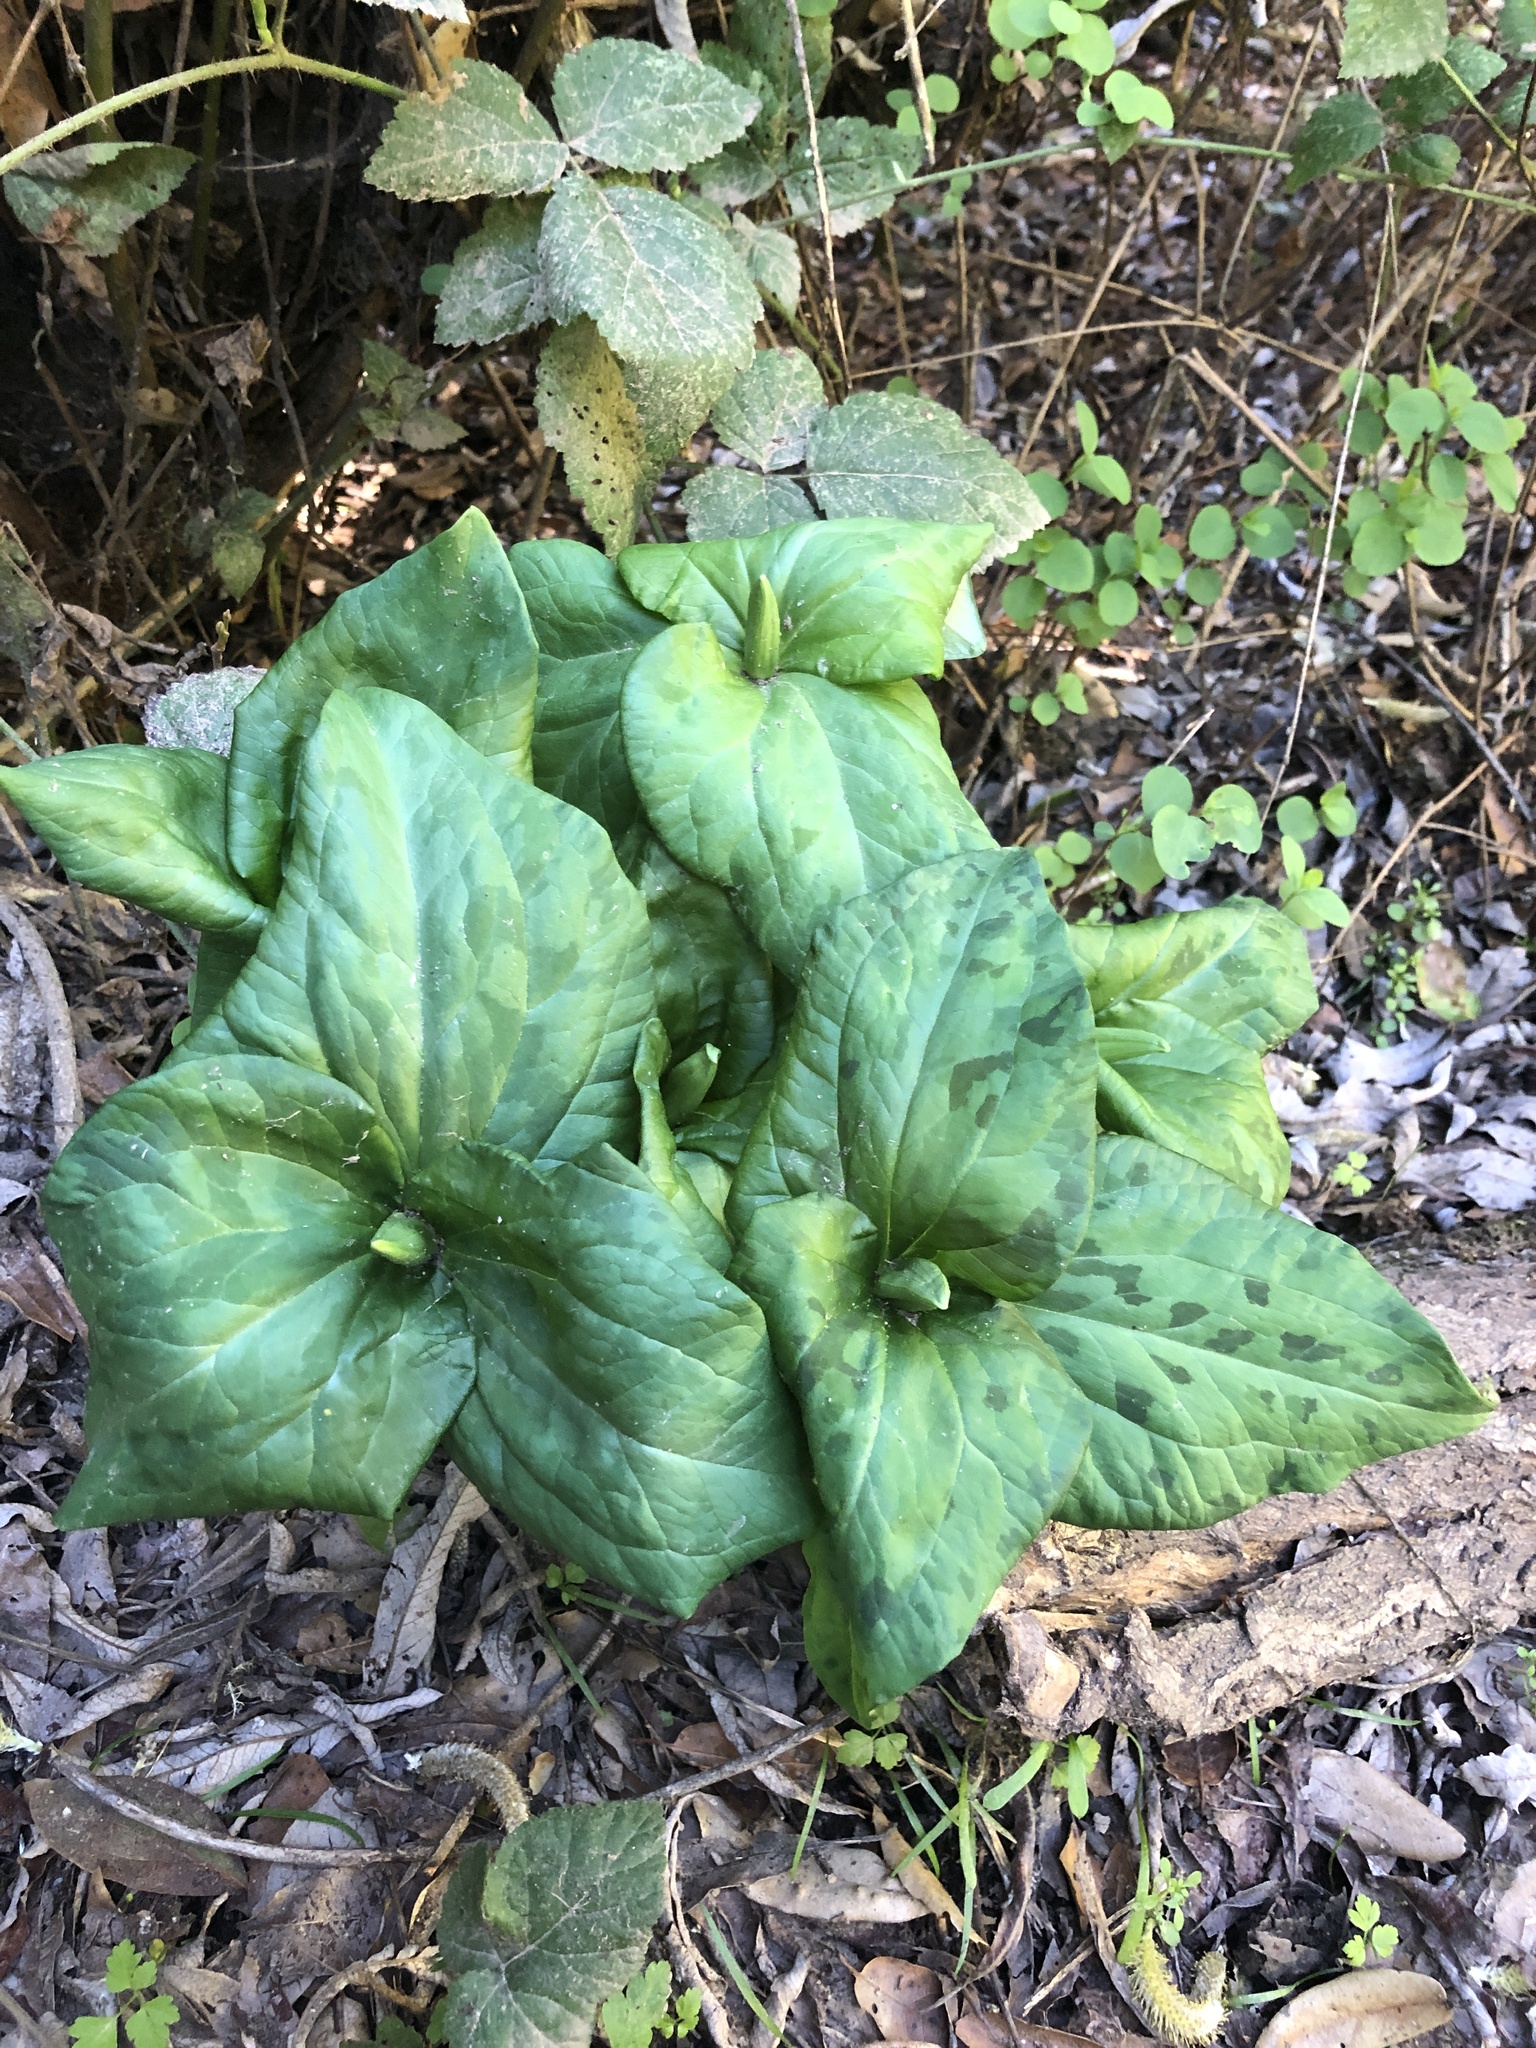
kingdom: Plantae
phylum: Tracheophyta
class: Liliopsida
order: Liliales
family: Melanthiaceae
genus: Trillium
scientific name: Trillium
